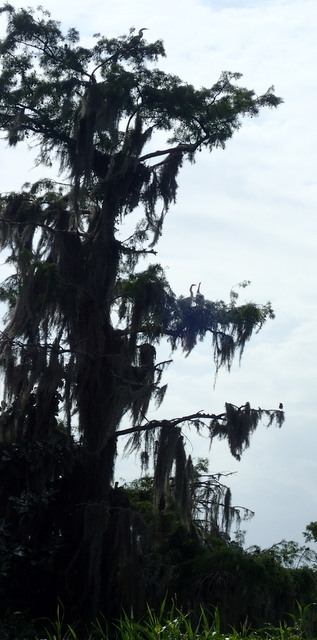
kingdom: Animalia
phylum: Chordata
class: Aves
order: Suliformes
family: Anhingidae
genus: Anhinga
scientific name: Anhinga anhinga
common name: Anhinga
